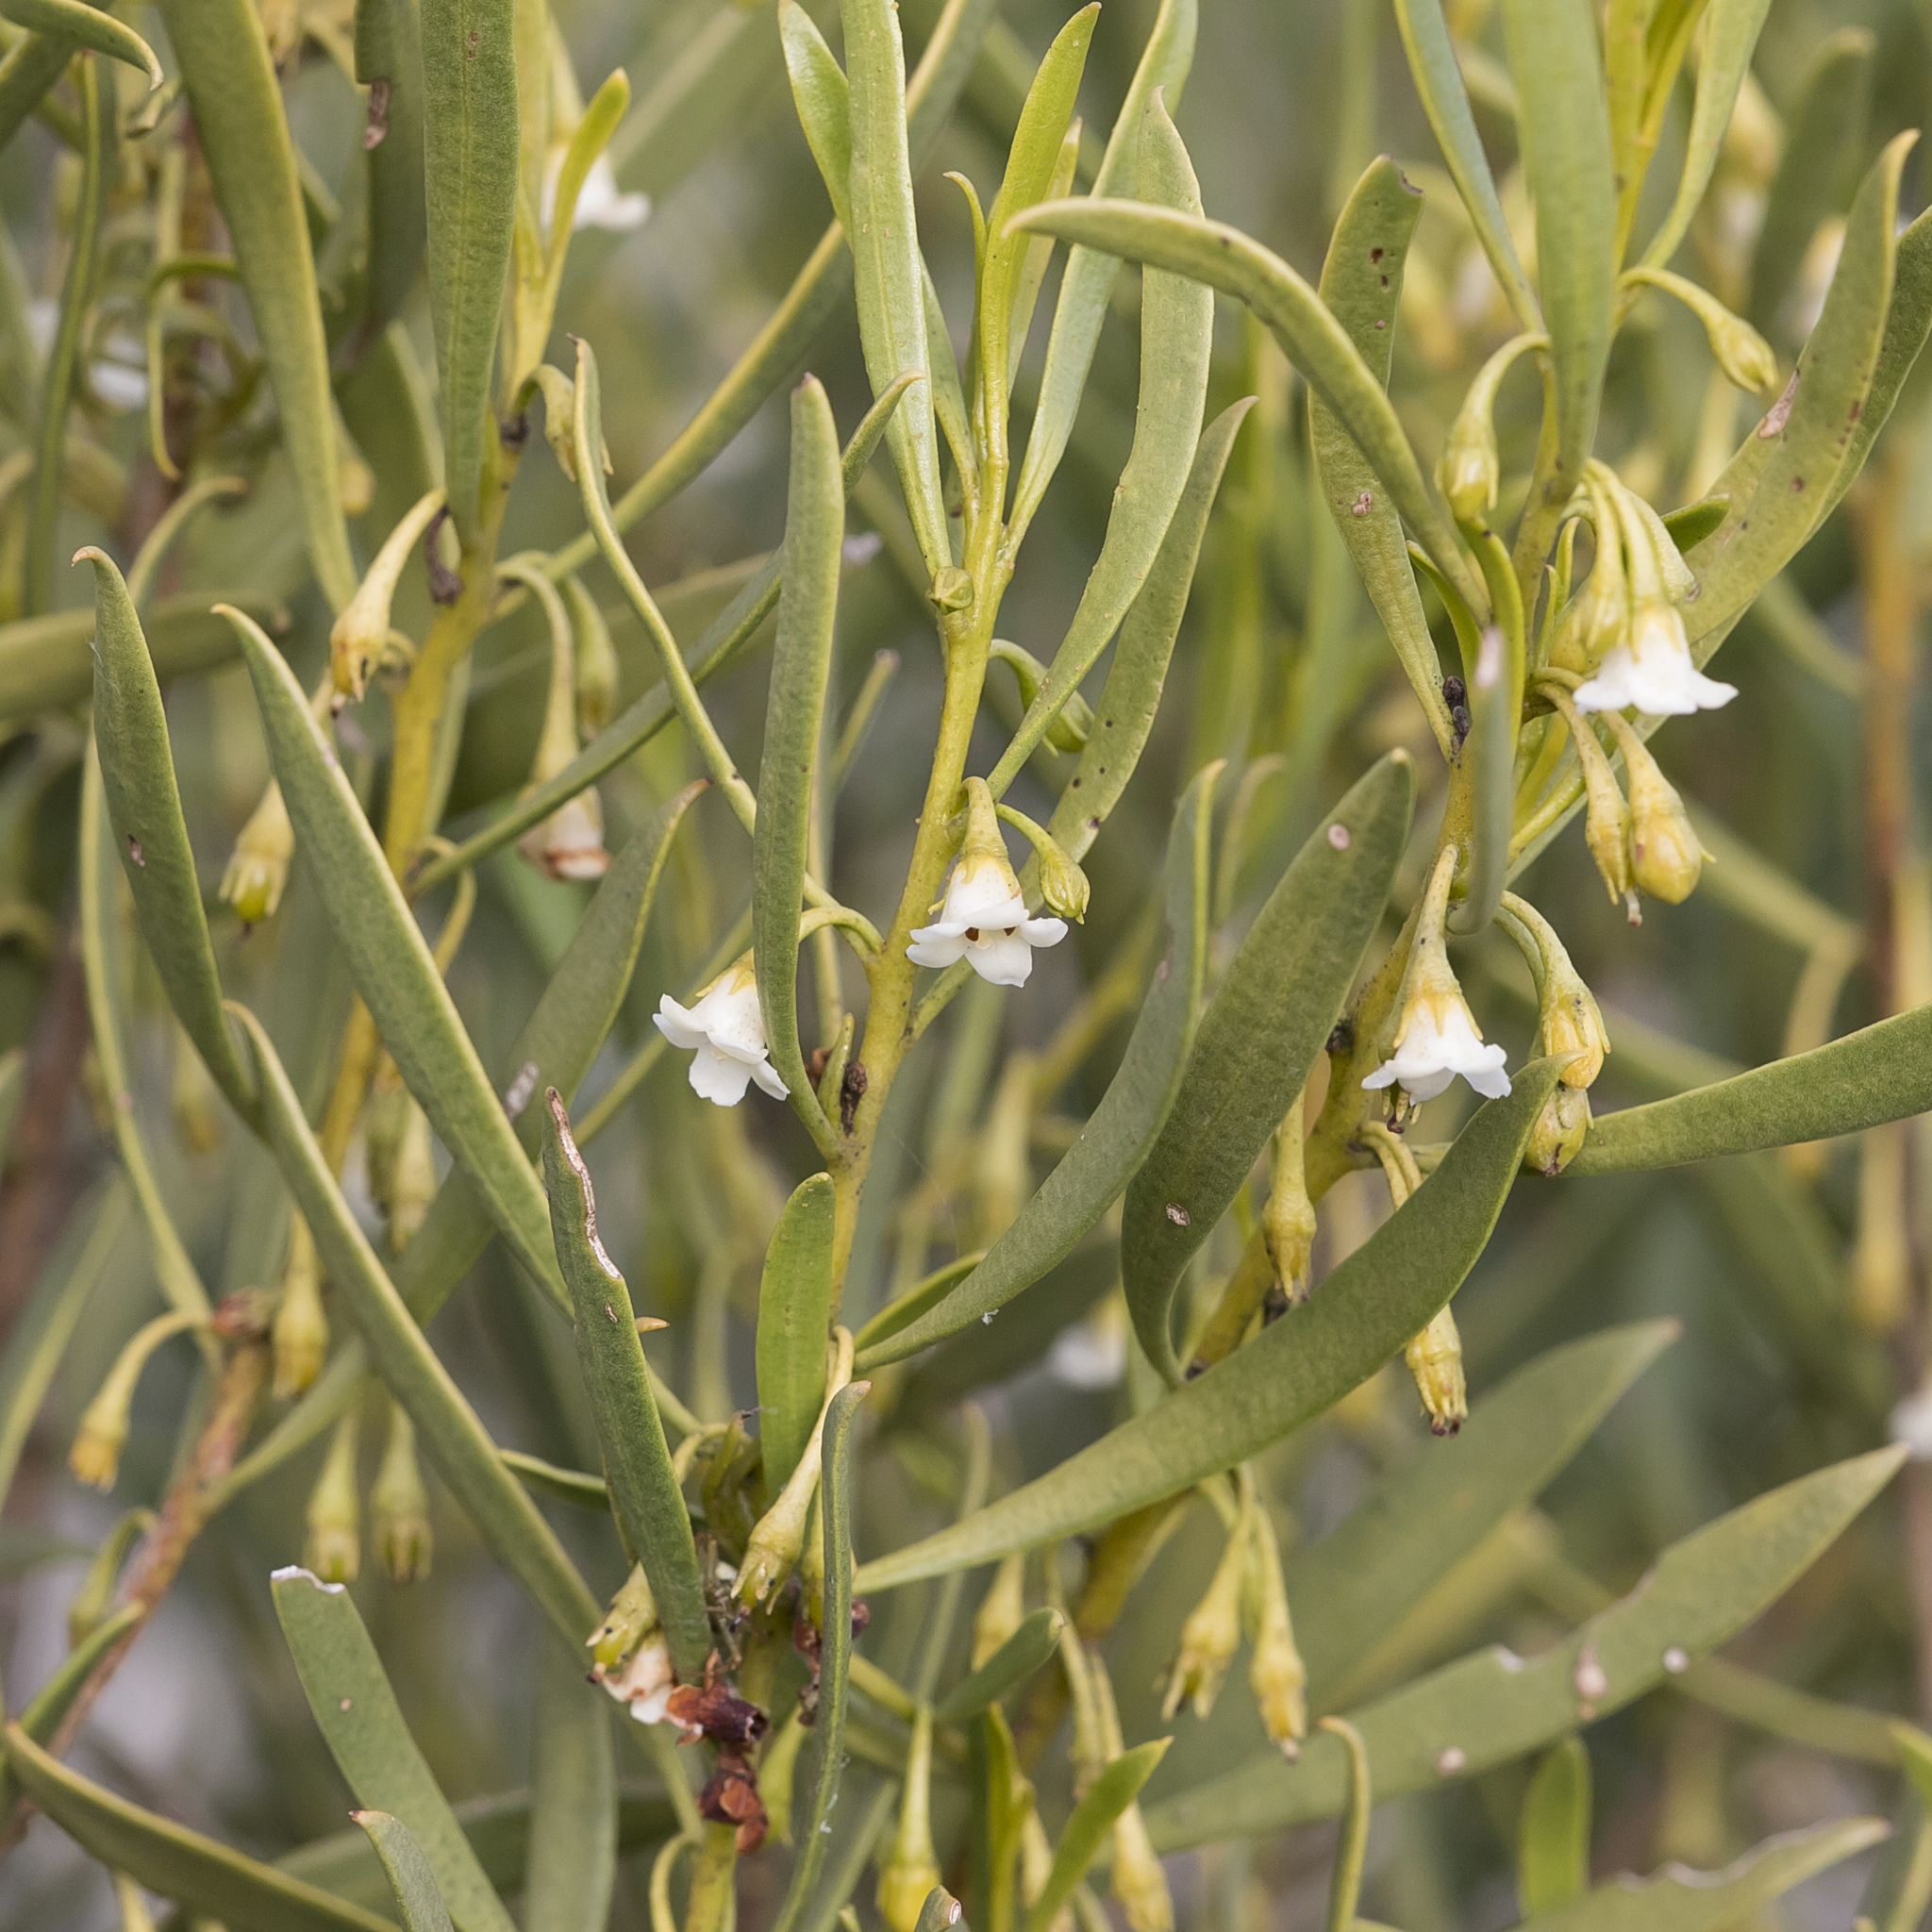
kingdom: Plantae
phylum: Tracheophyta
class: Magnoliopsida
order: Lamiales
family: Scrophulariaceae
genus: Eremophila
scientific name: Eremophila deserti
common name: Ellangowan-poisonbush
